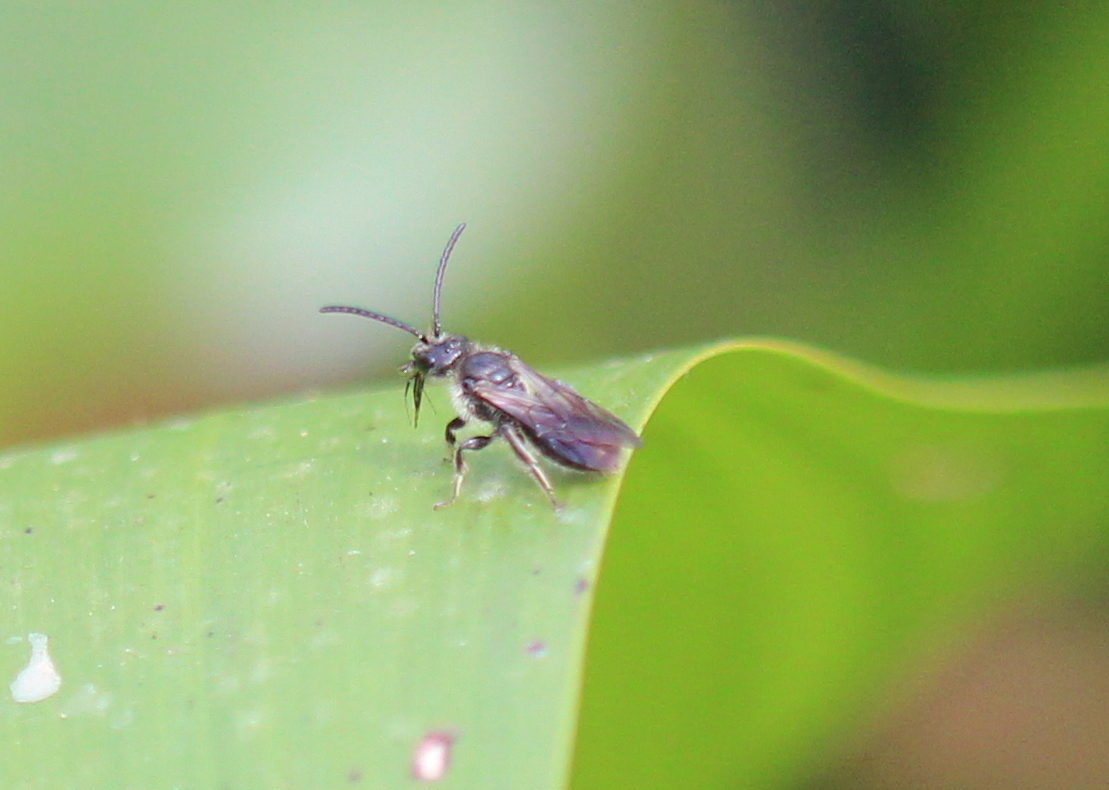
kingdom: Animalia
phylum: Arthropoda
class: Insecta
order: Hymenoptera
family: Halictidae
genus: Dufourea
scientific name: Dufourea novaeangliae
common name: Pickerelweed shortface
